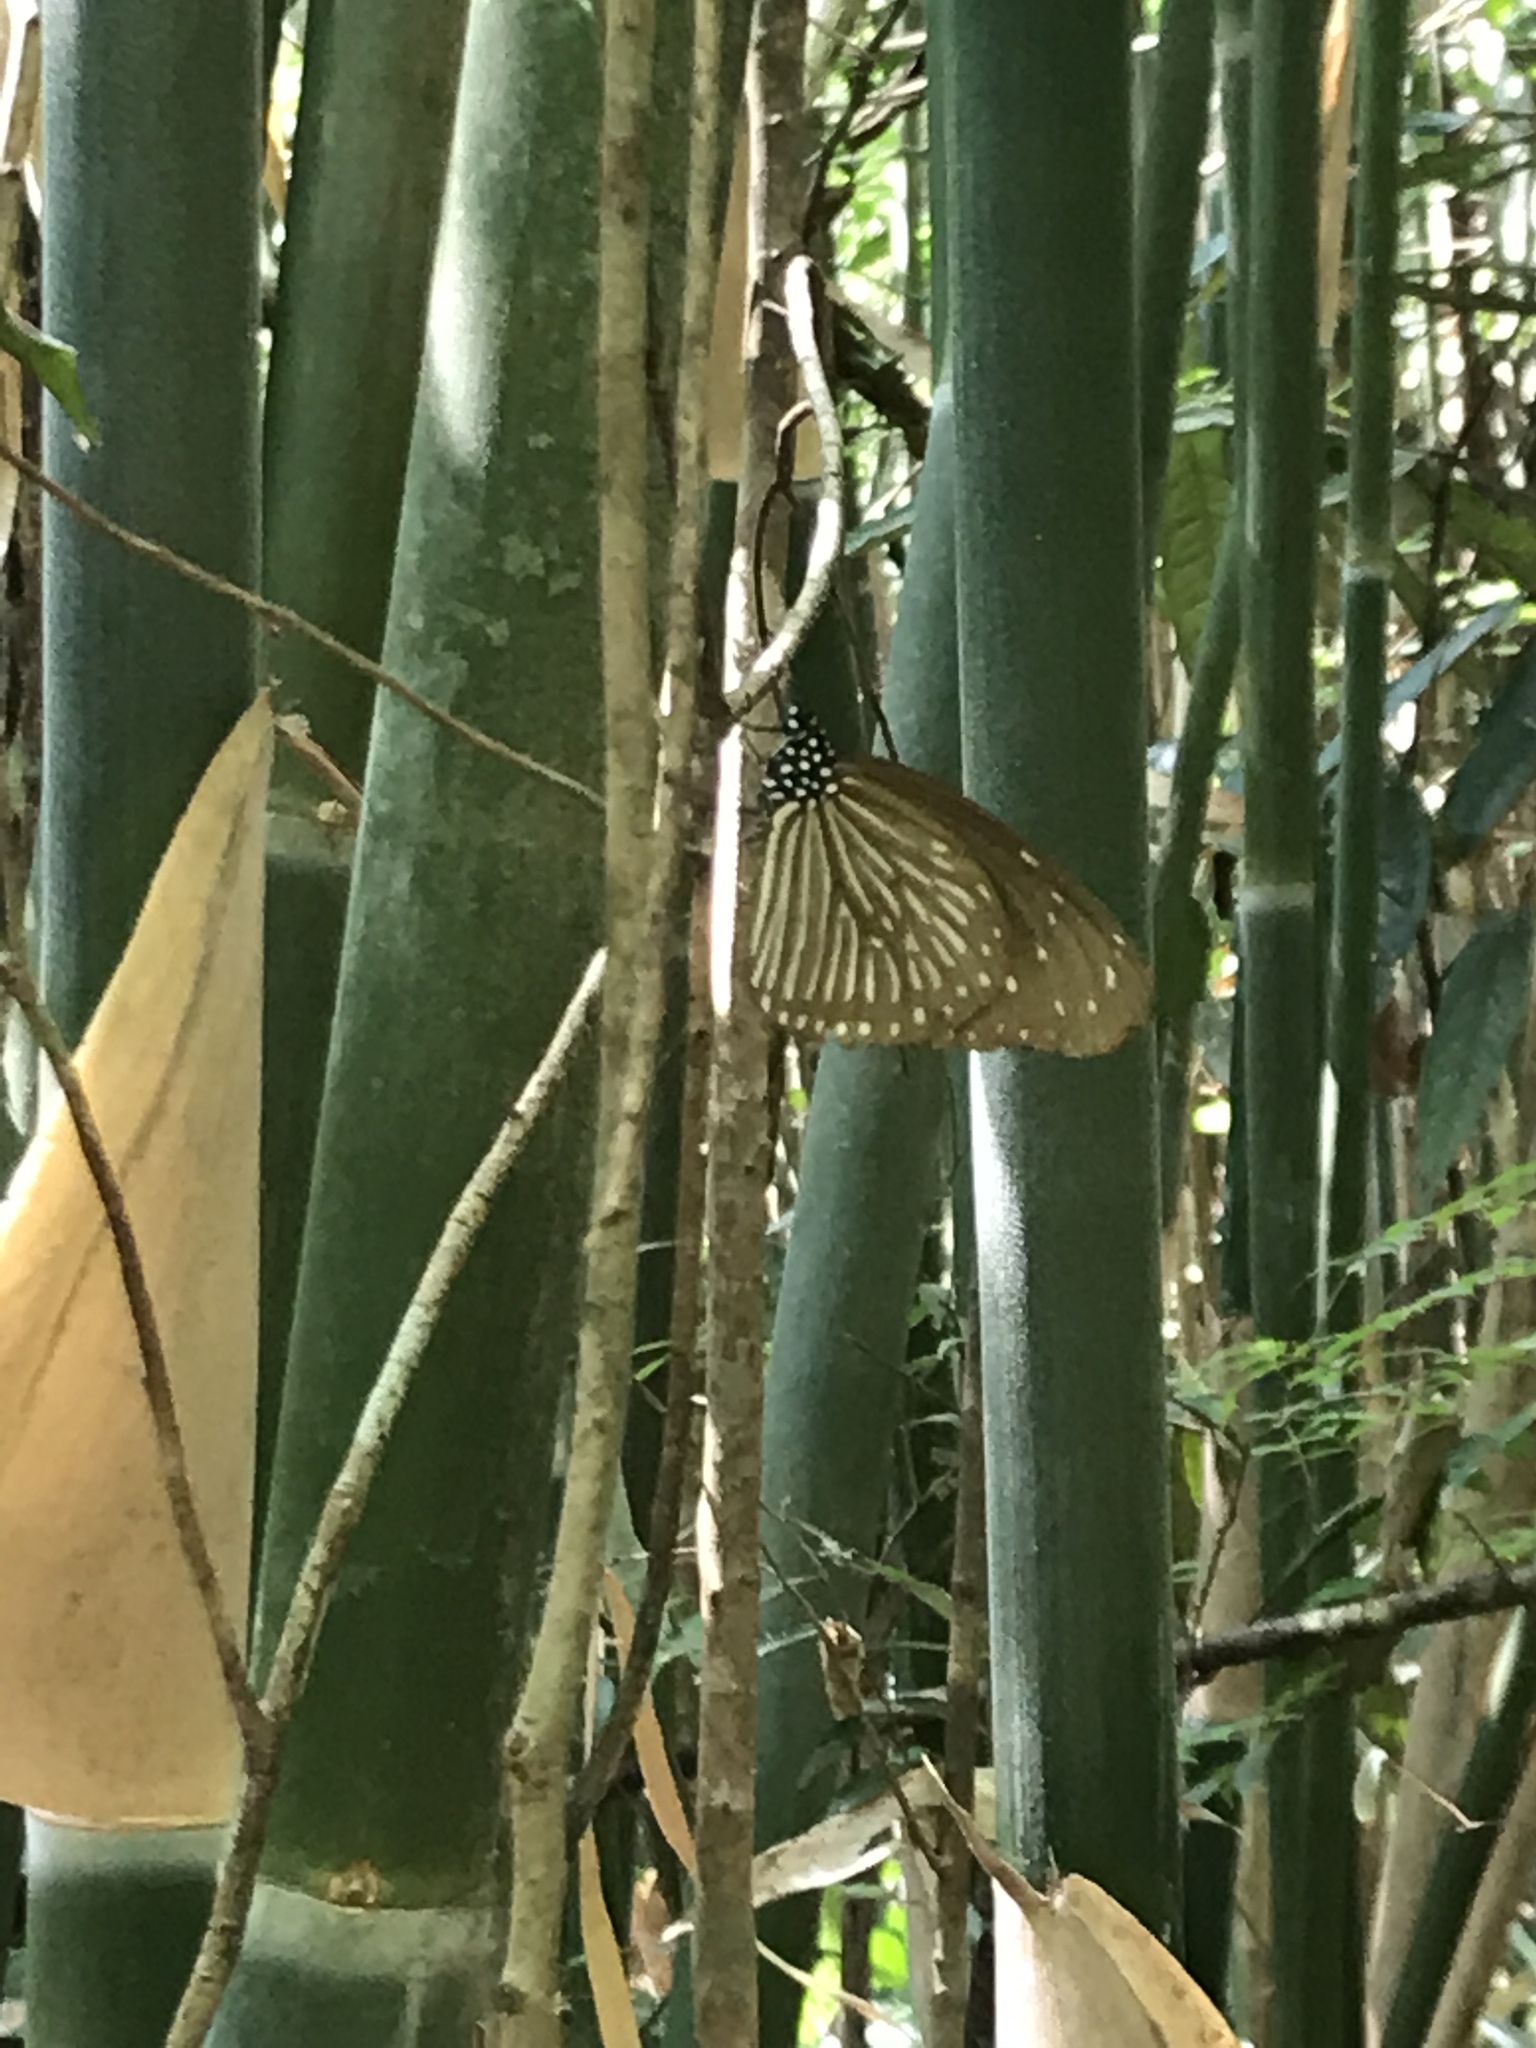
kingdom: Animalia
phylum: Arthropoda
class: Insecta
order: Lepidoptera
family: Nymphalidae
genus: Euploea
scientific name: Euploea mulciber
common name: Striped blue crow butterfly
